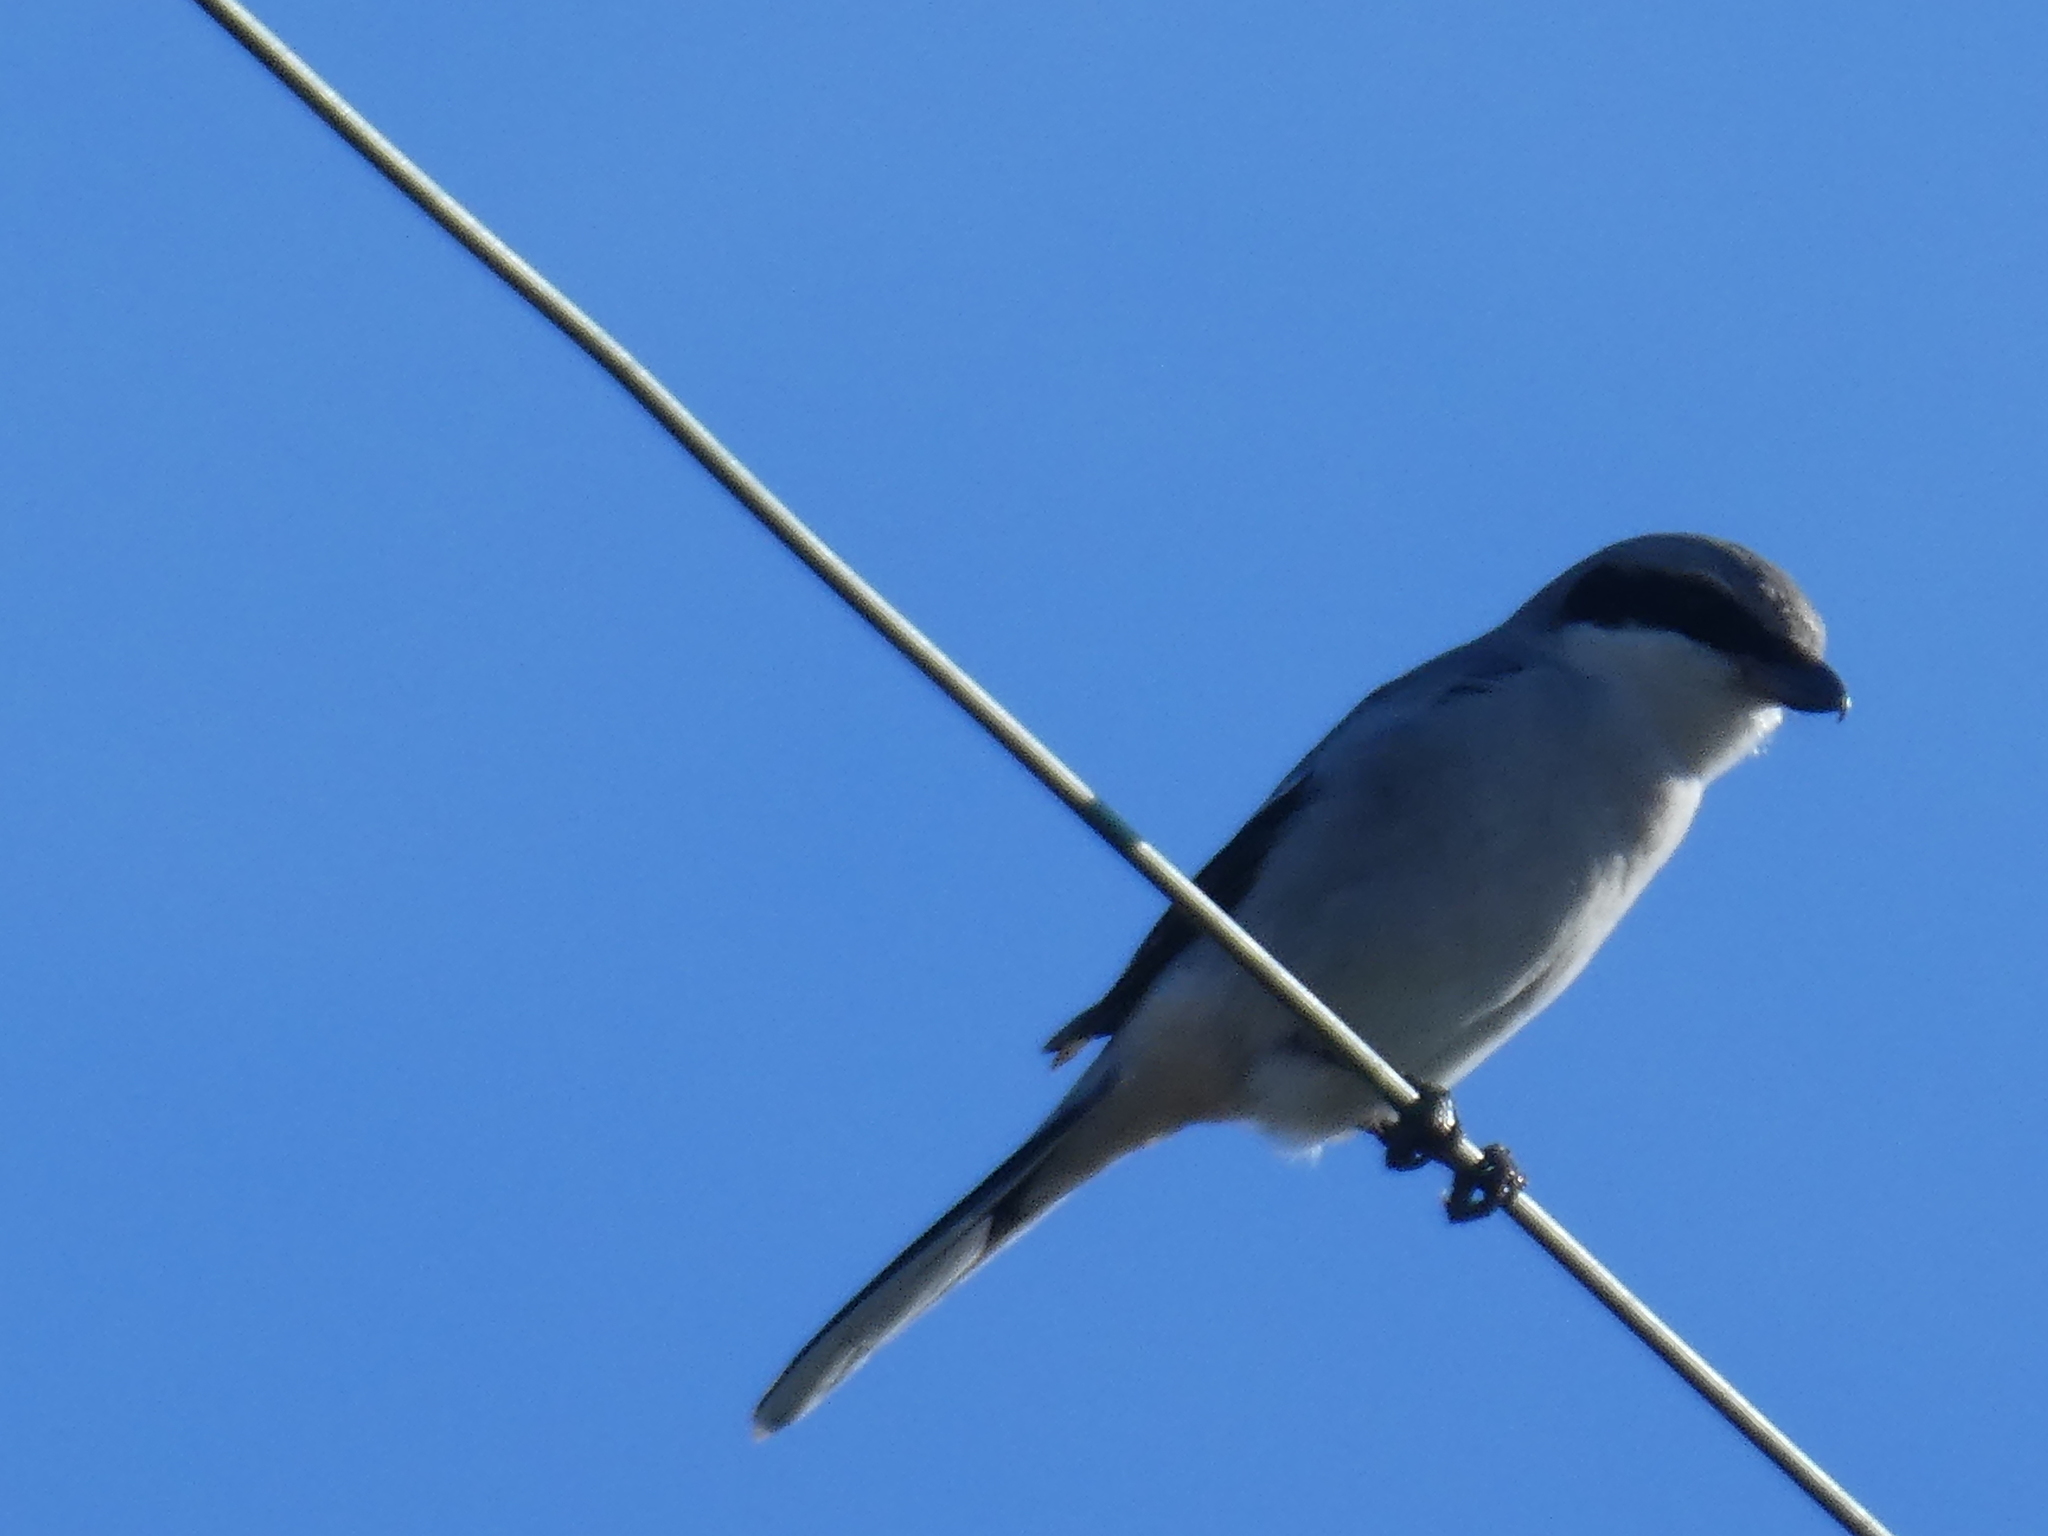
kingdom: Animalia
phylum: Chordata
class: Aves
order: Passeriformes
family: Laniidae
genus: Lanius
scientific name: Lanius ludovicianus
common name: Loggerhead shrike
